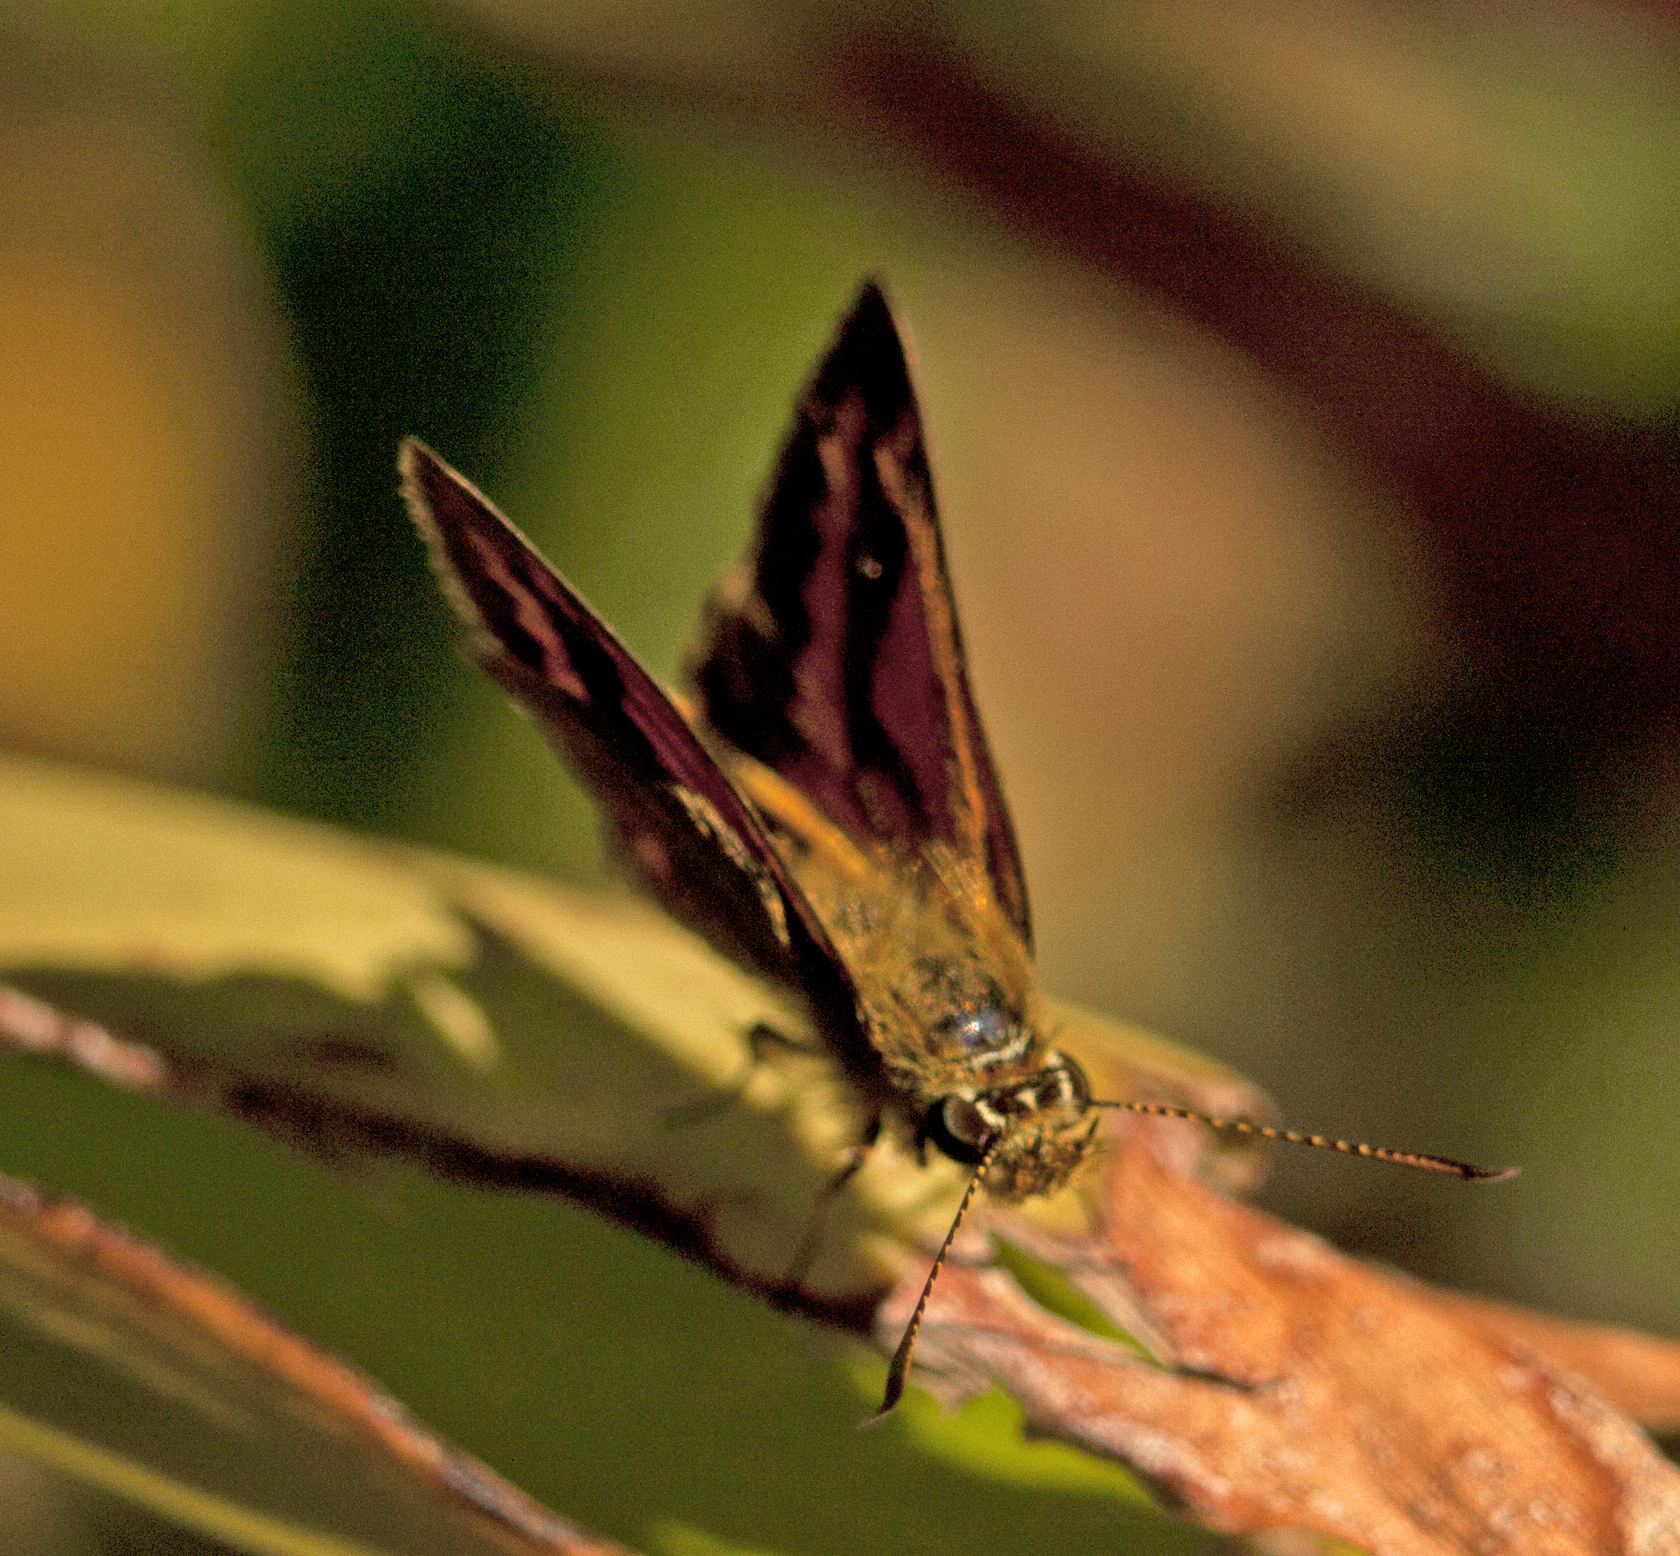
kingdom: Animalia
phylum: Arthropoda
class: Insecta
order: Lepidoptera
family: Hesperiidae
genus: Suniana
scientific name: Suniana sunias
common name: Wide-brand grass-dart
